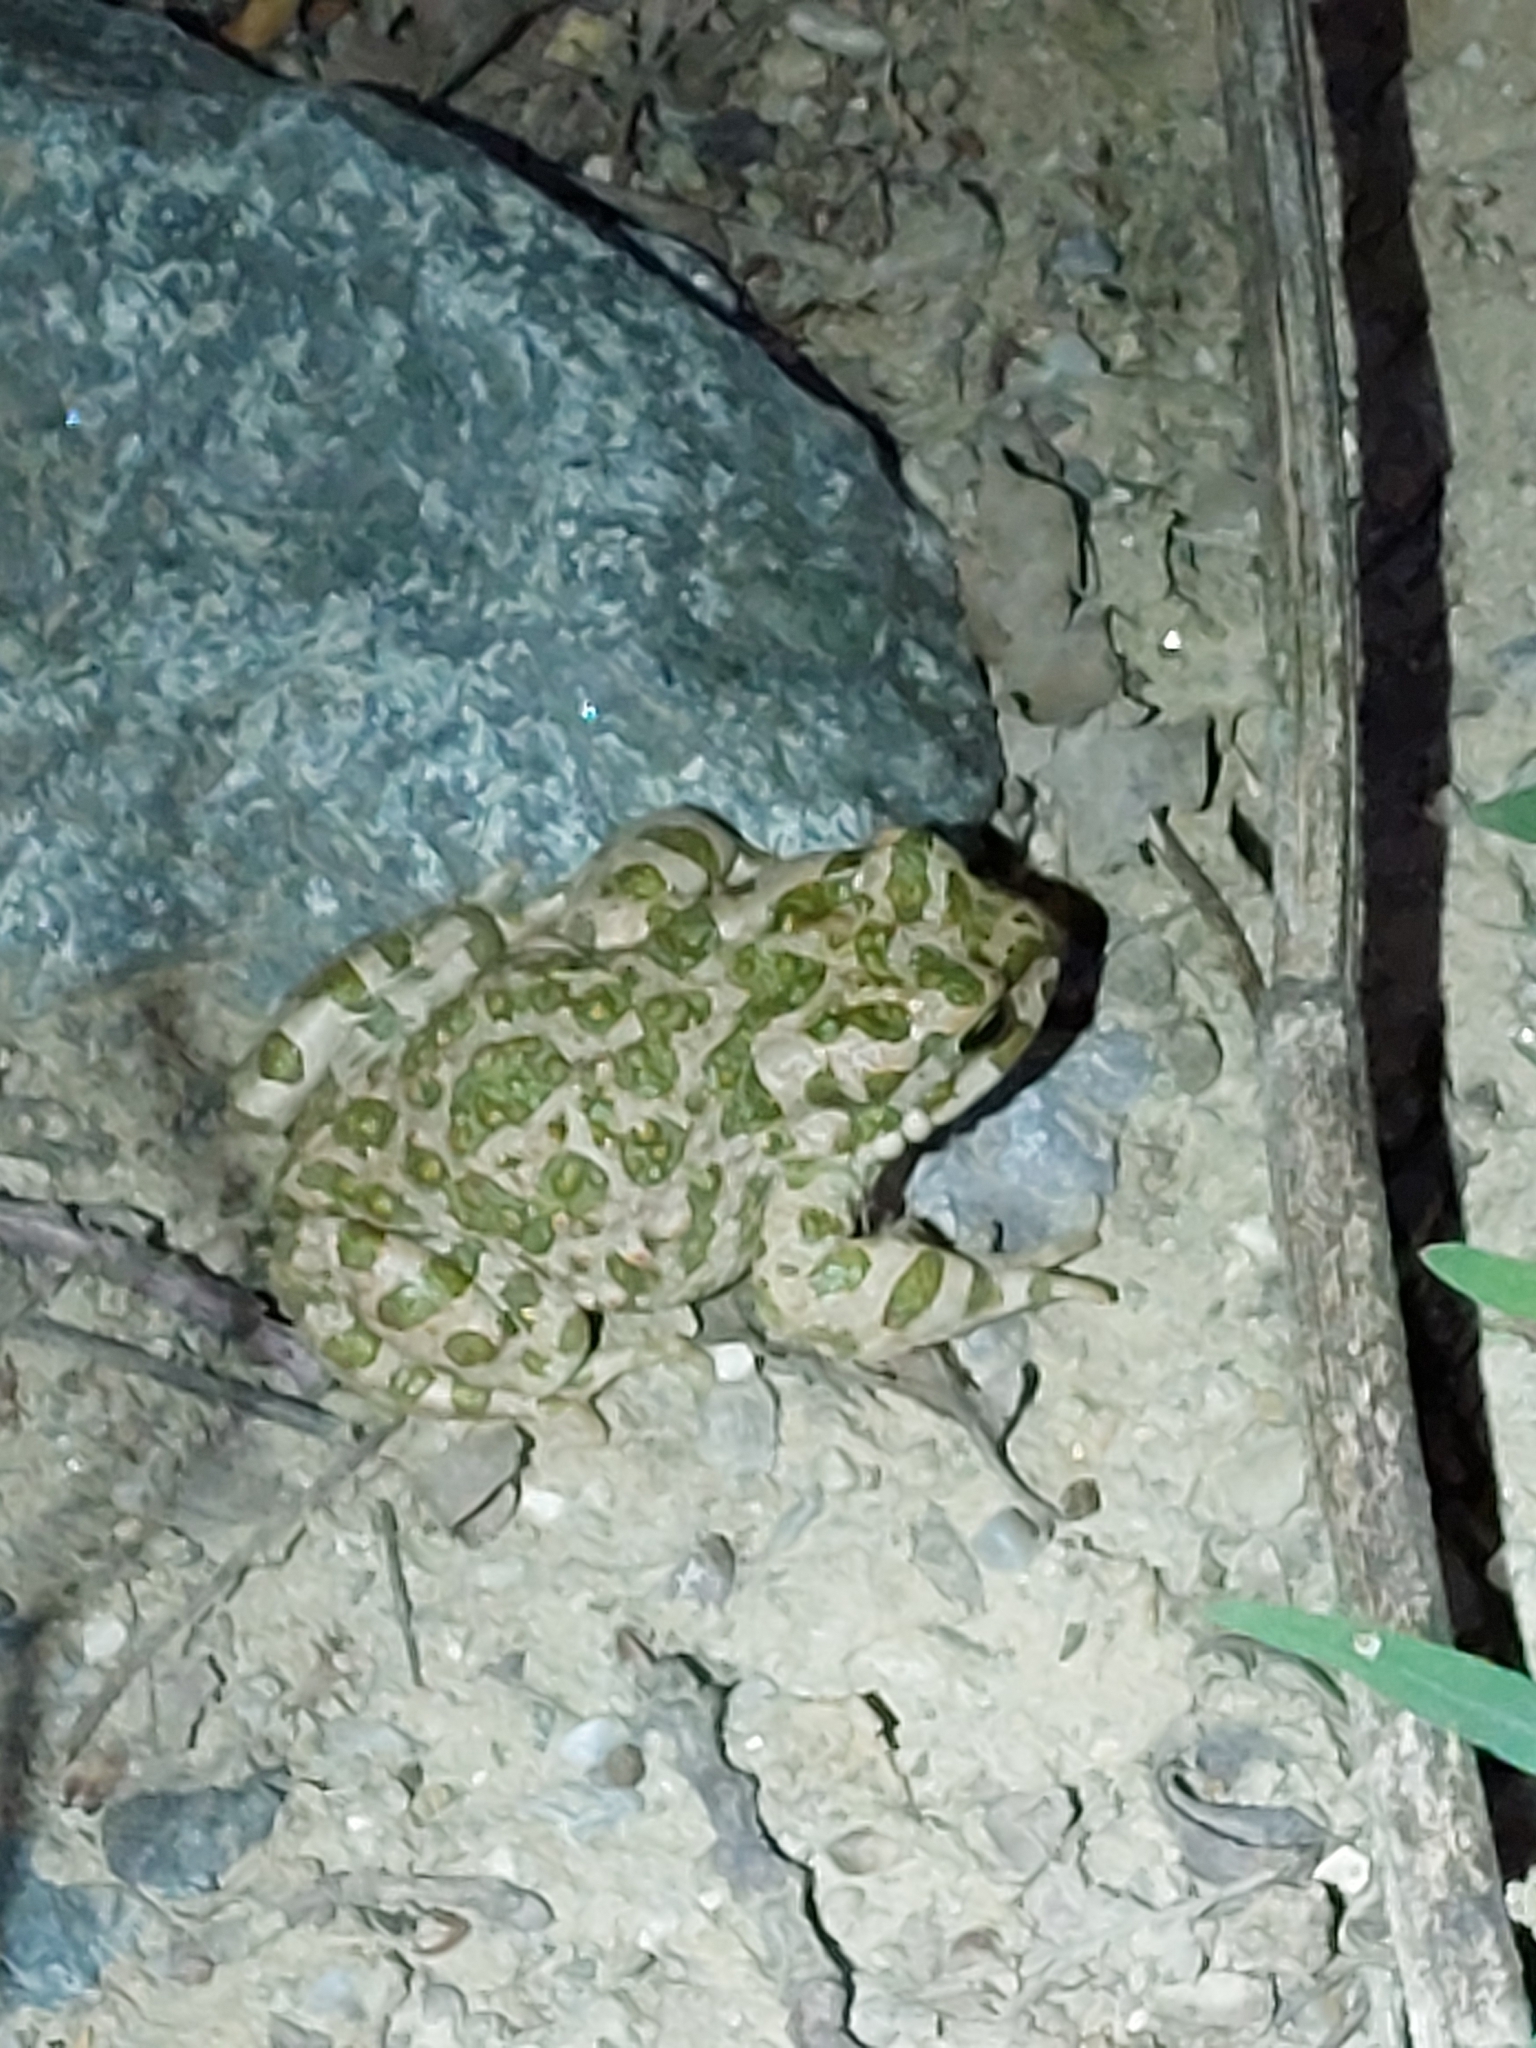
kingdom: Animalia
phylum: Chordata
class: Amphibia
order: Anura
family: Bufonidae
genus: Bufotes
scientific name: Bufotes viridis
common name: European green toad
